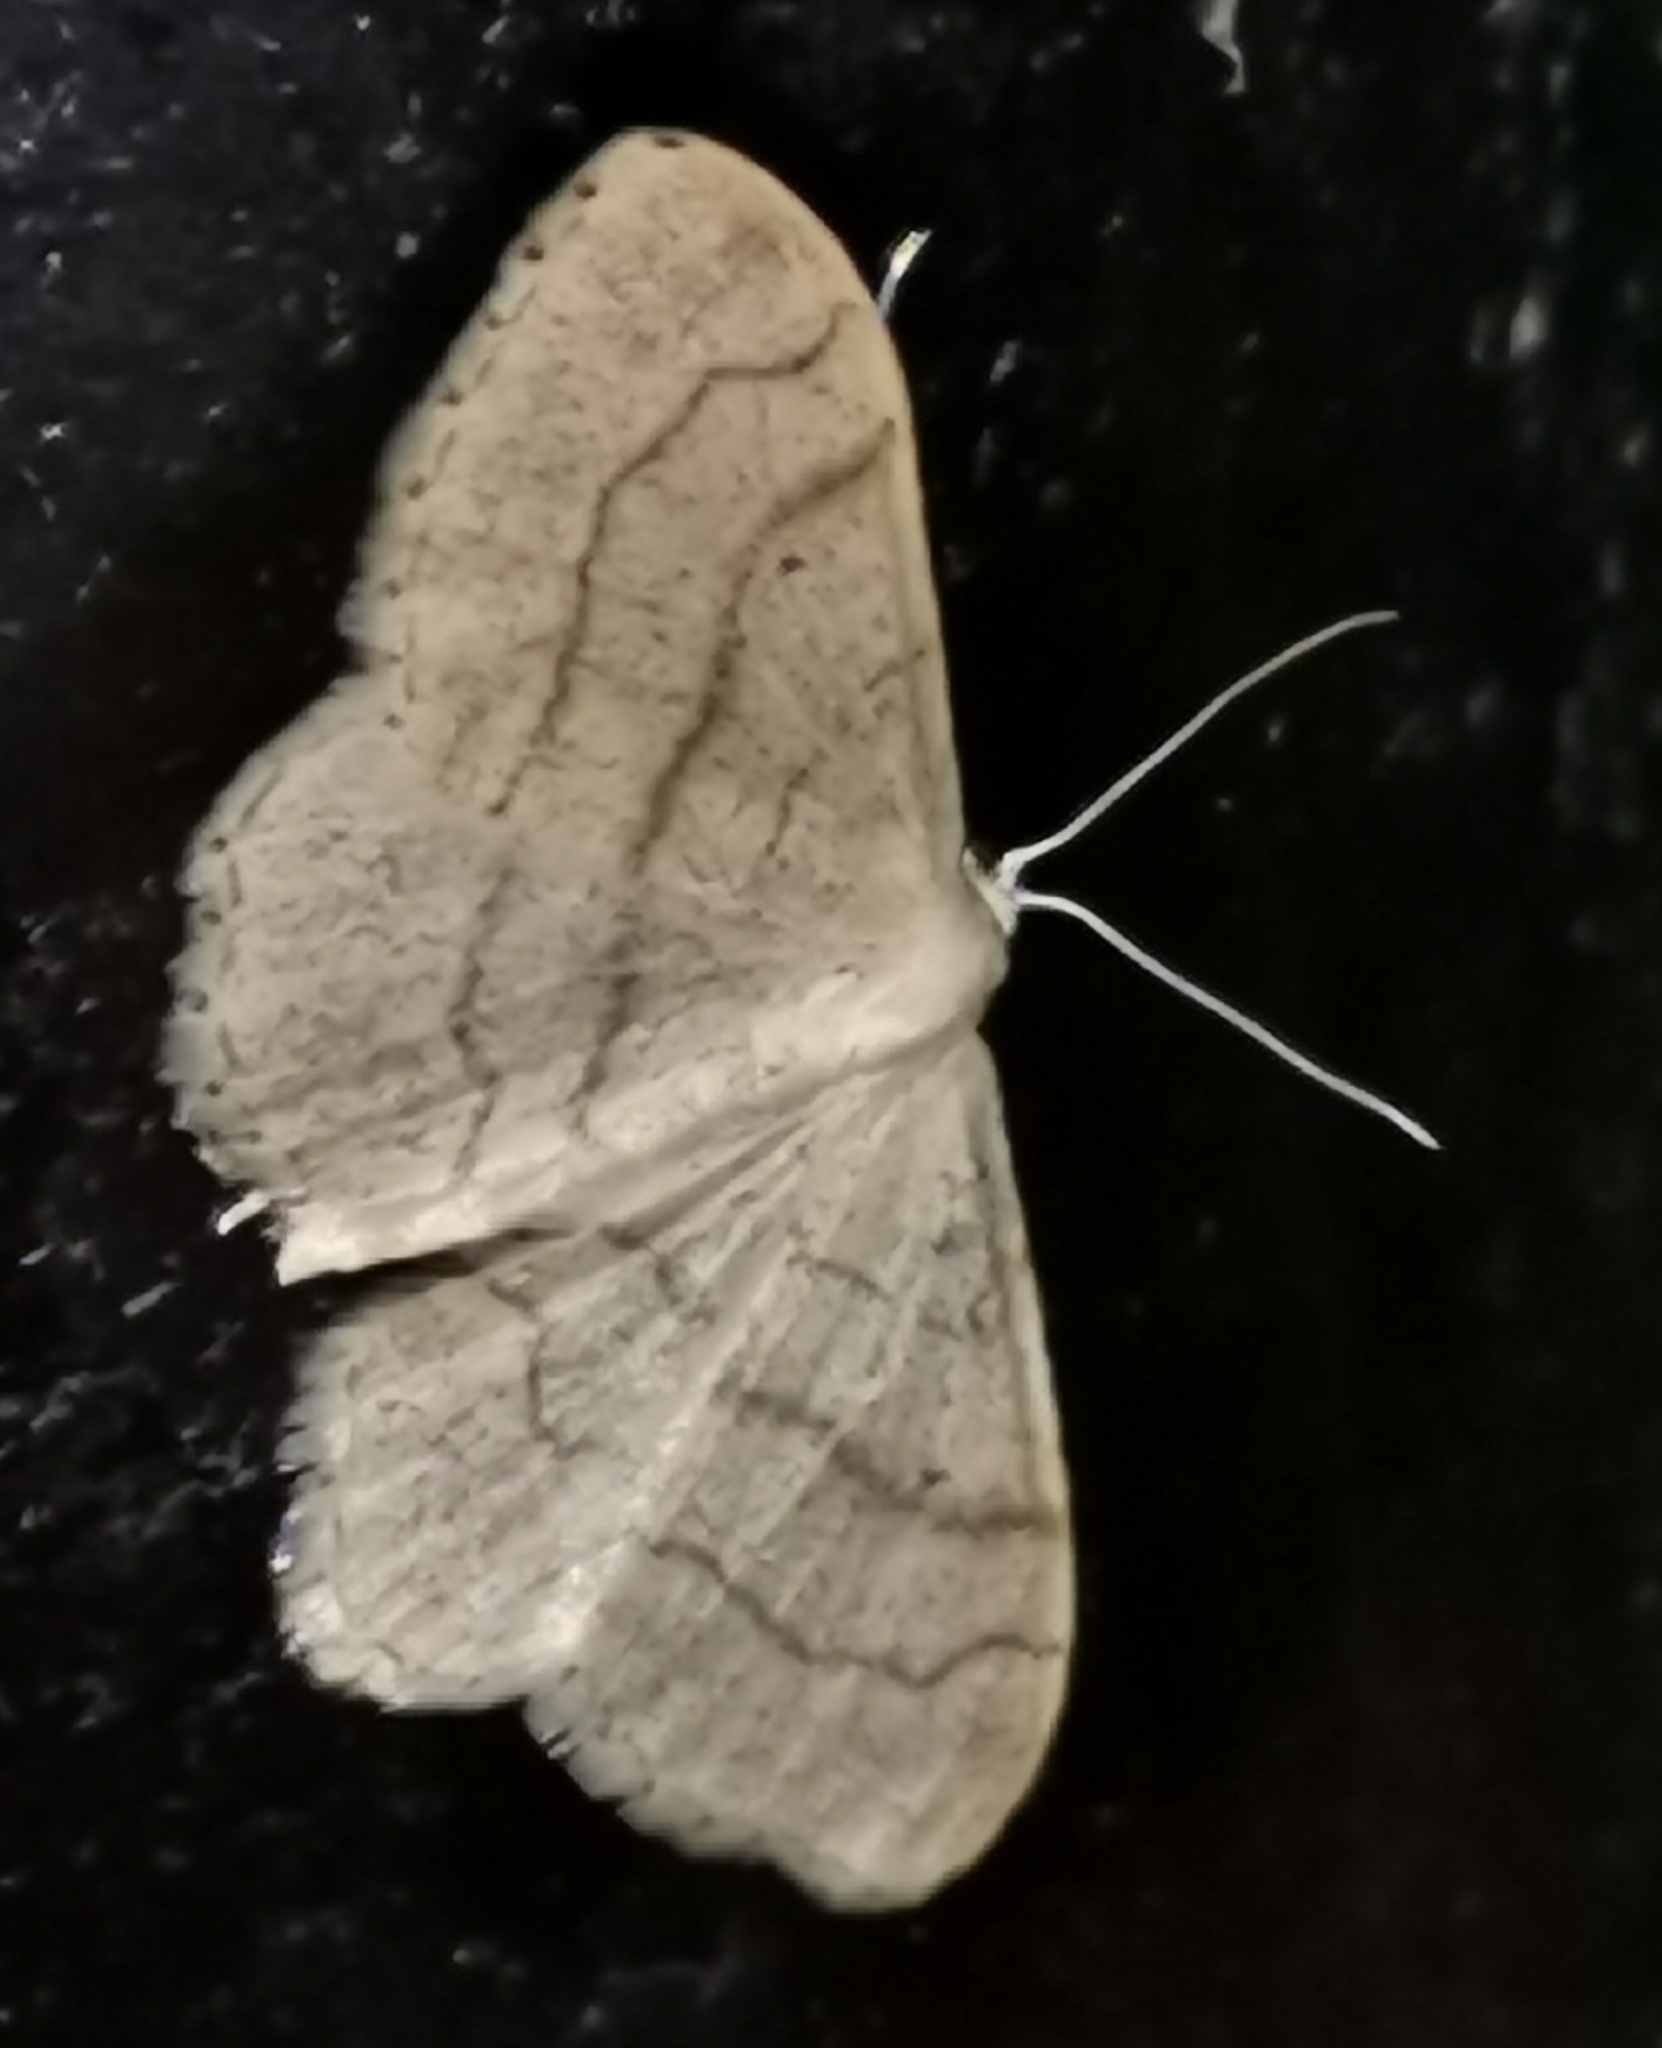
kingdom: Animalia
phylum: Arthropoda
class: Insecta
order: Lepidoptera
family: Geometridae
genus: Idaea
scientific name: Idaea aversata
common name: Riband wave
